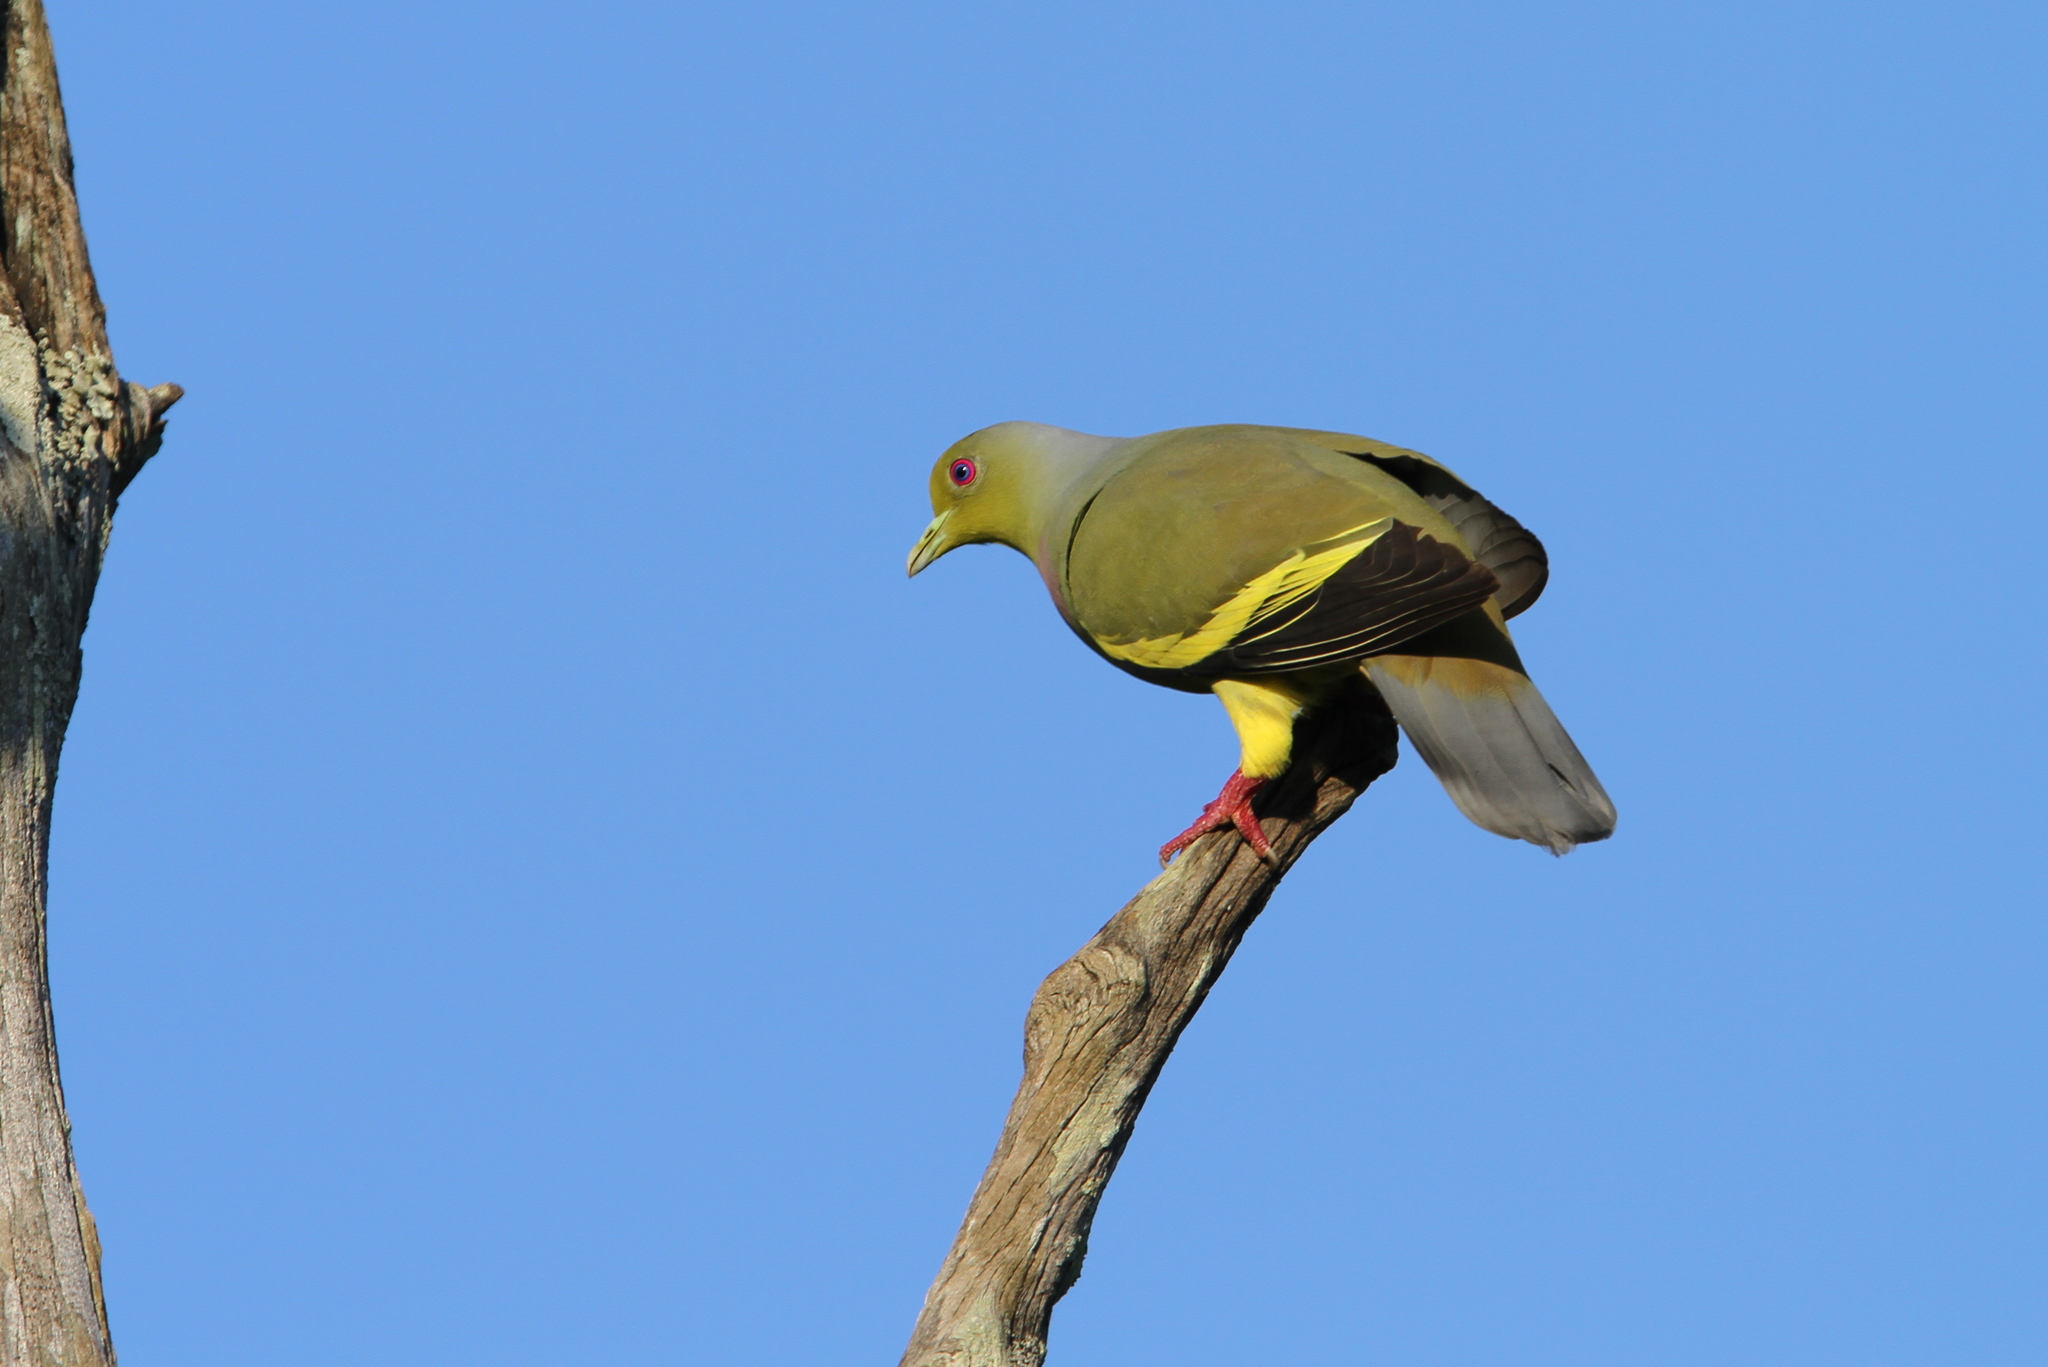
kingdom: Animalia
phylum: Chordata
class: Aves
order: Columbiformes
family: Columbidae
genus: Treron
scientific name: Treron bicinctus
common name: Orange-breasted green pigeon
